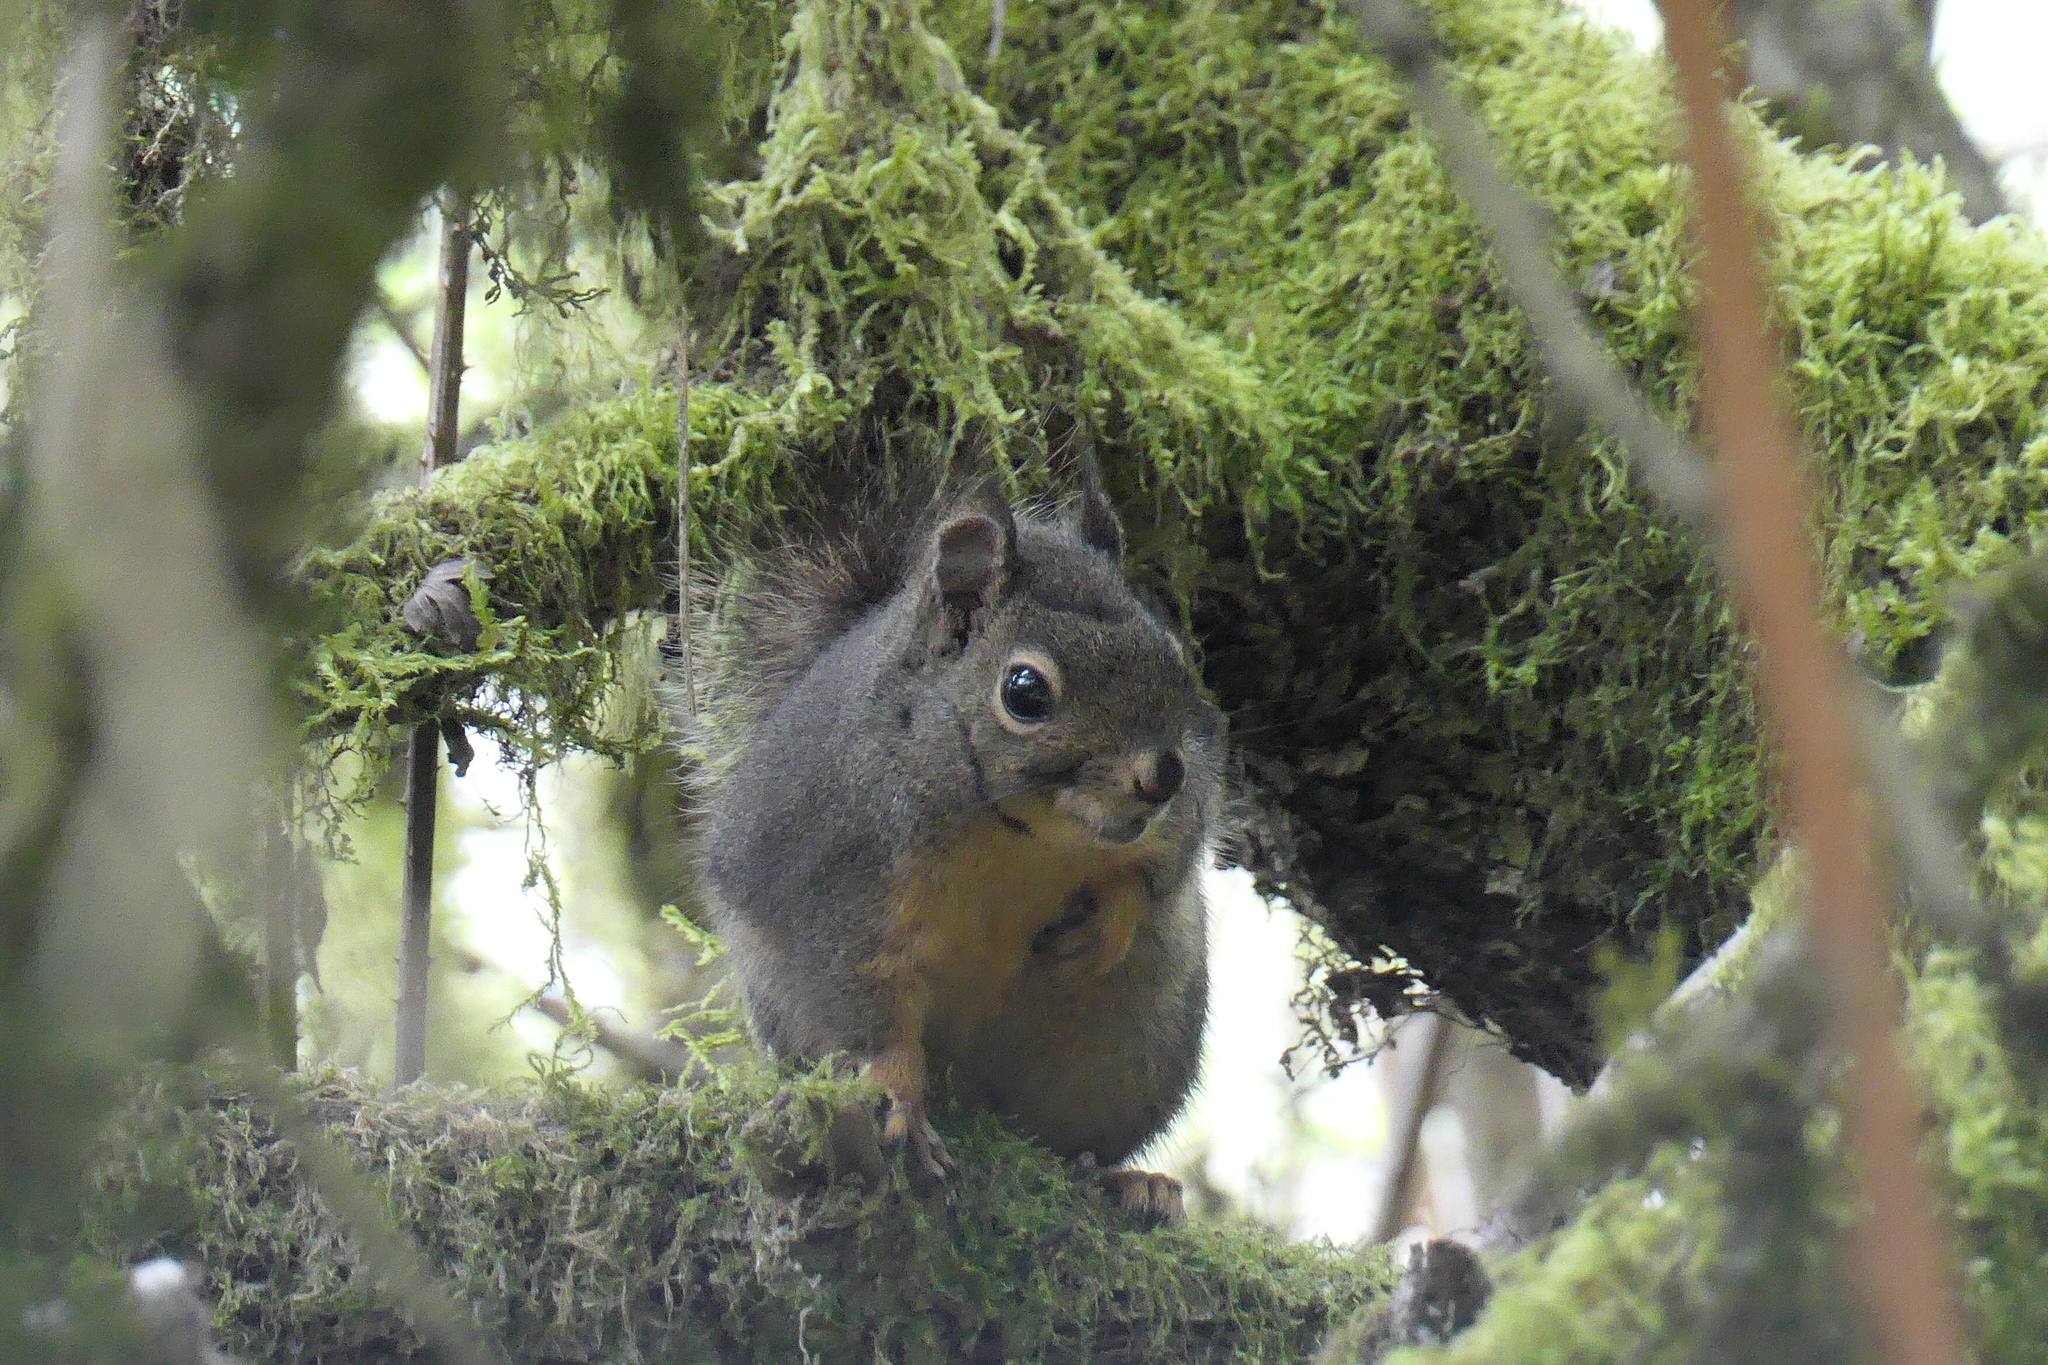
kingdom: Animalia
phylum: Chordata
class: Mammalia
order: Rodentia
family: Sciuridae
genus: Tamiasciurus
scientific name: Tamiasciurus douglasii
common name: Douglas's squirrel
